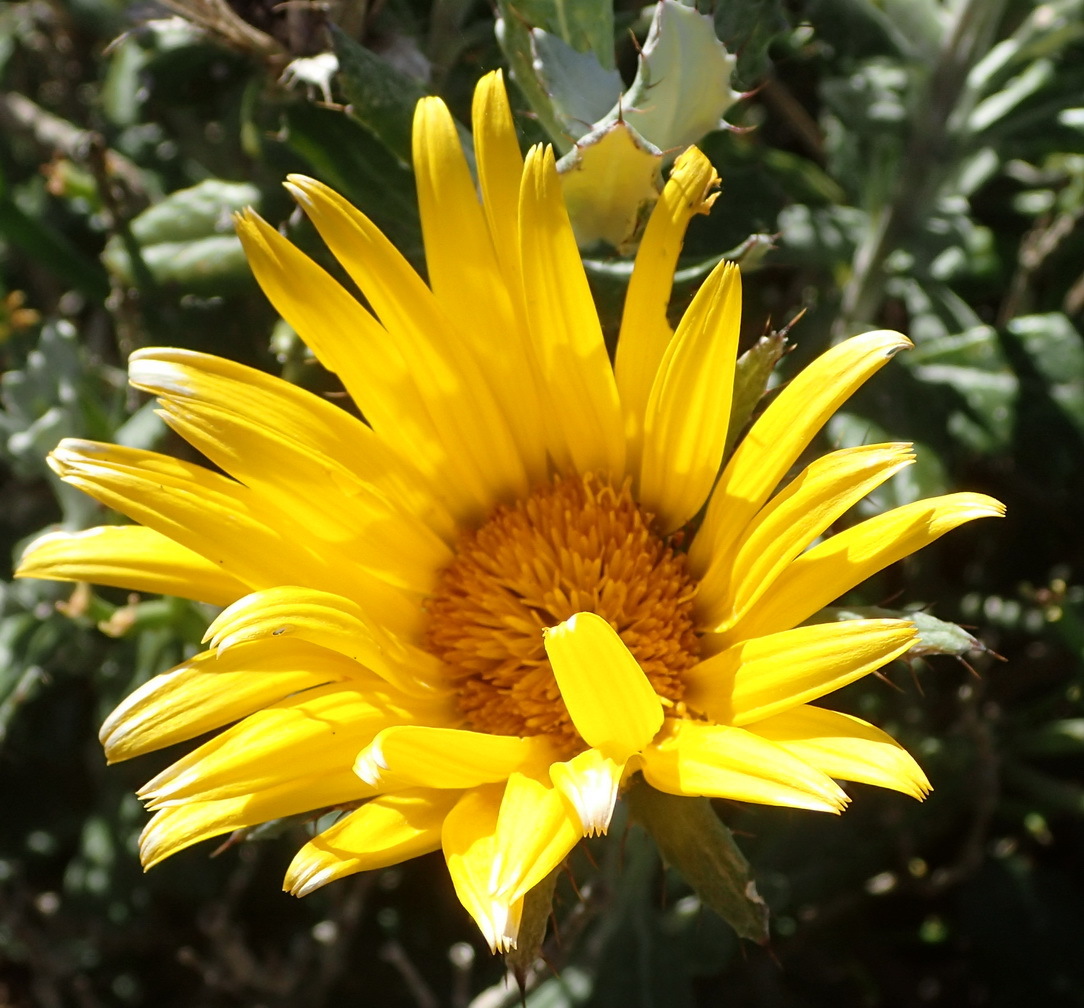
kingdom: Plantae
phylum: Tracheophyta
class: Magnoliopsida
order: Asterales
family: Asteraceae
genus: Berkheya
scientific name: Berkheya coriacea
